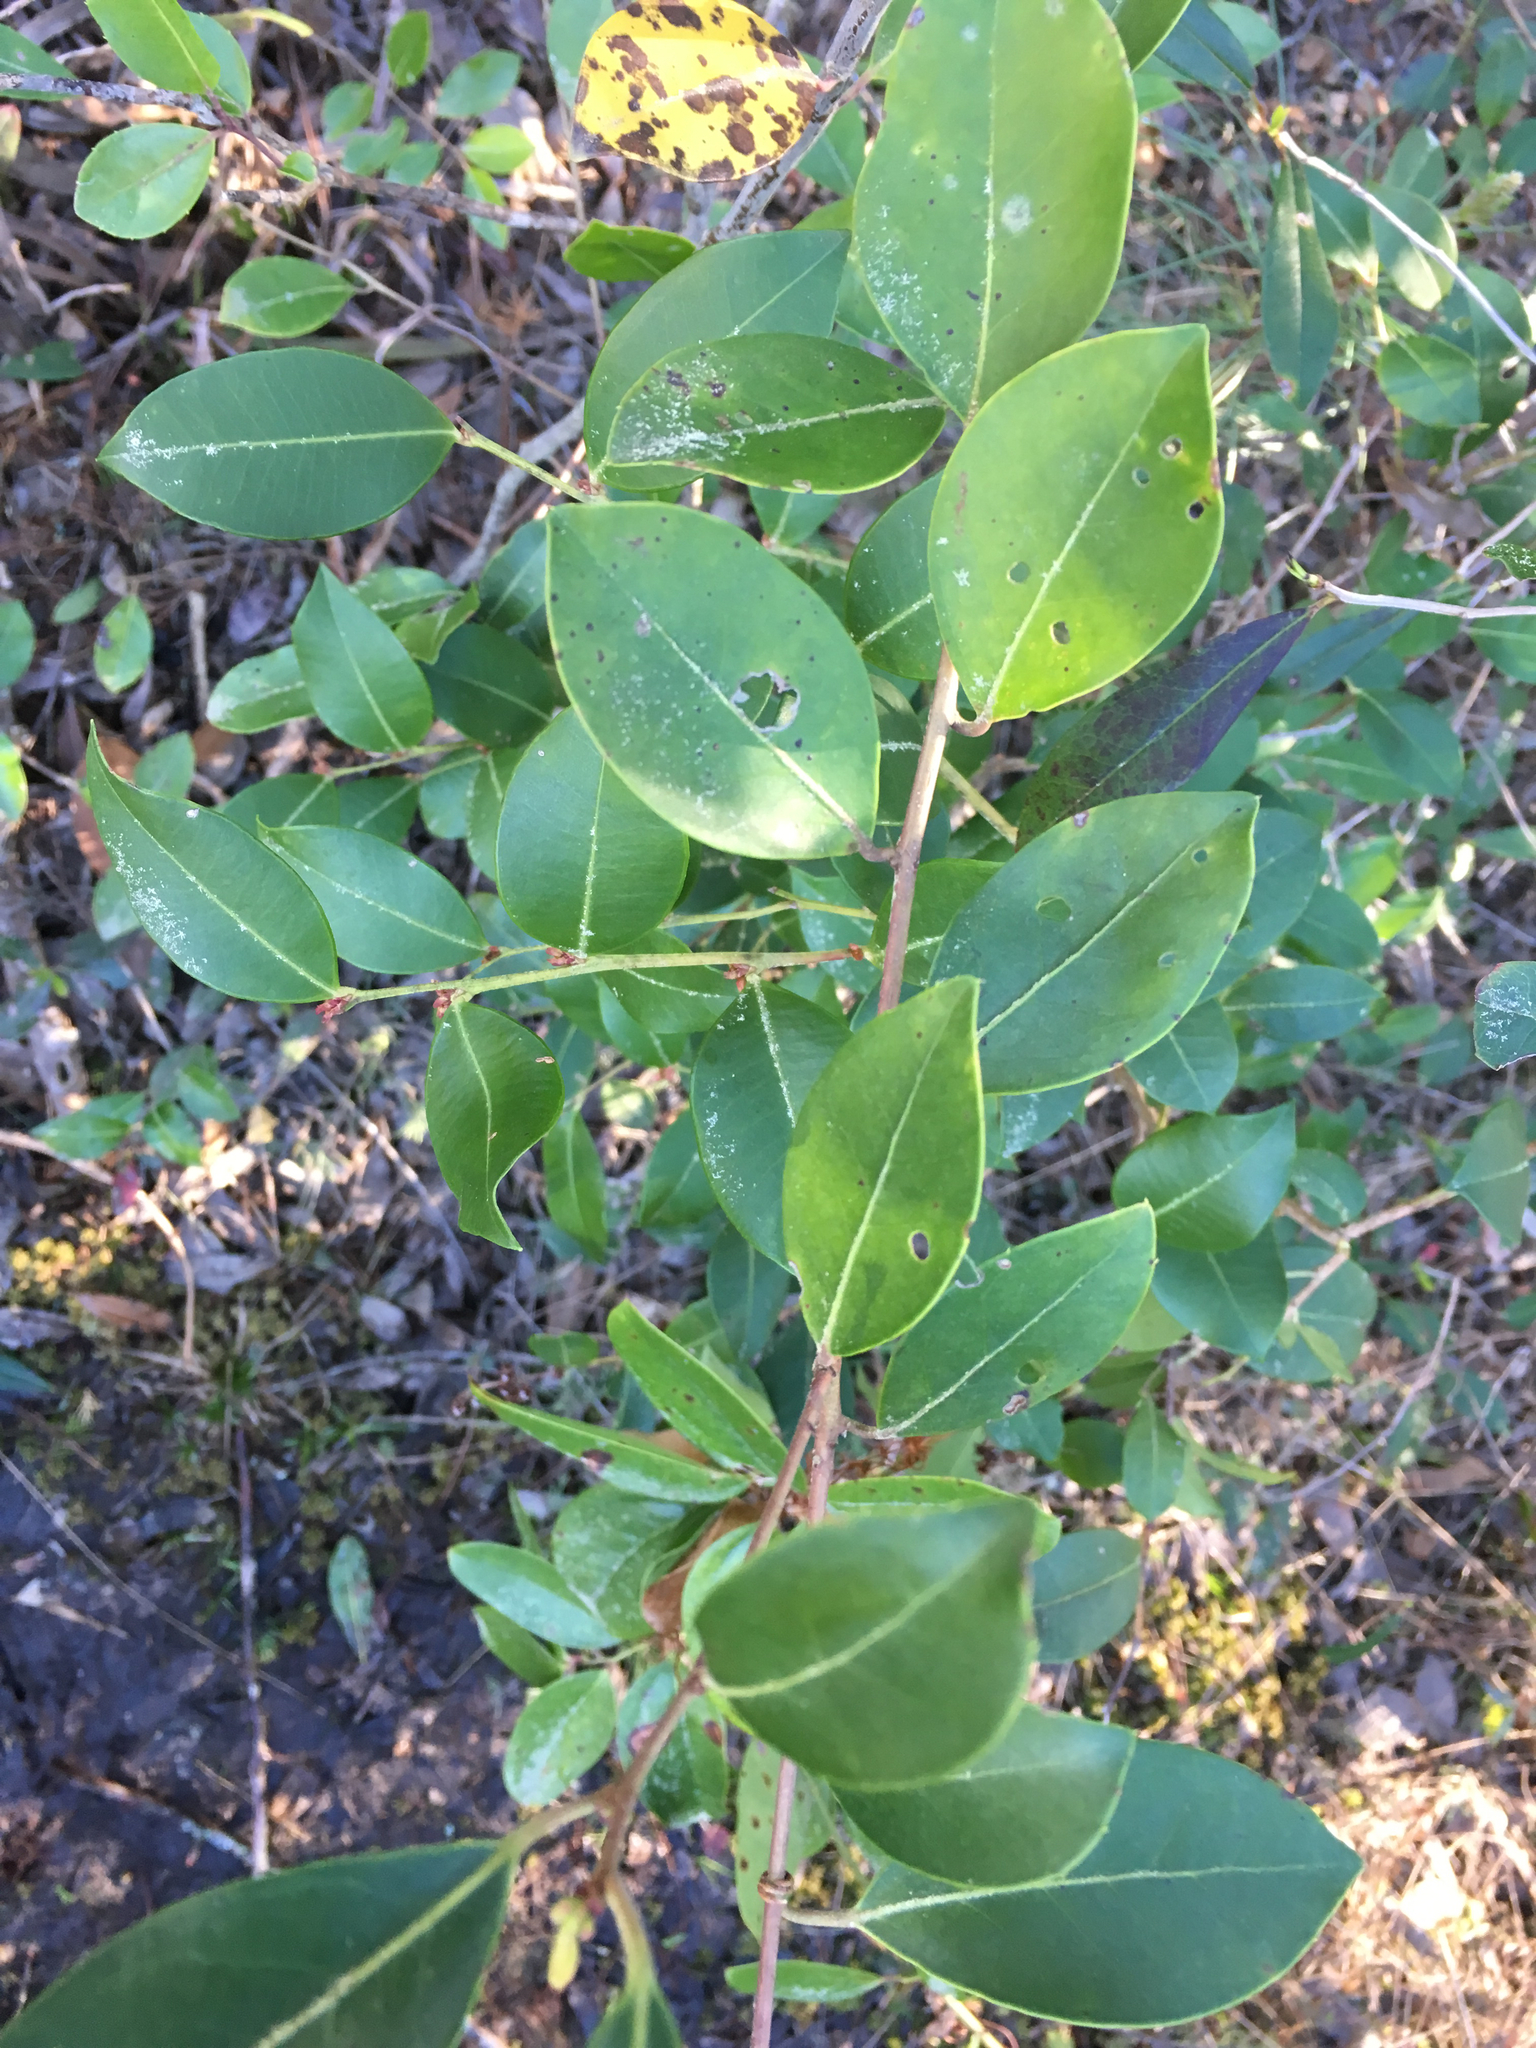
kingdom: Plantae
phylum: Tracheophyta
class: Magnoliopsida
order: Ericales
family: Ericaceae
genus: Lyonia
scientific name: Lyonia lucida
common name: Fetterbush
